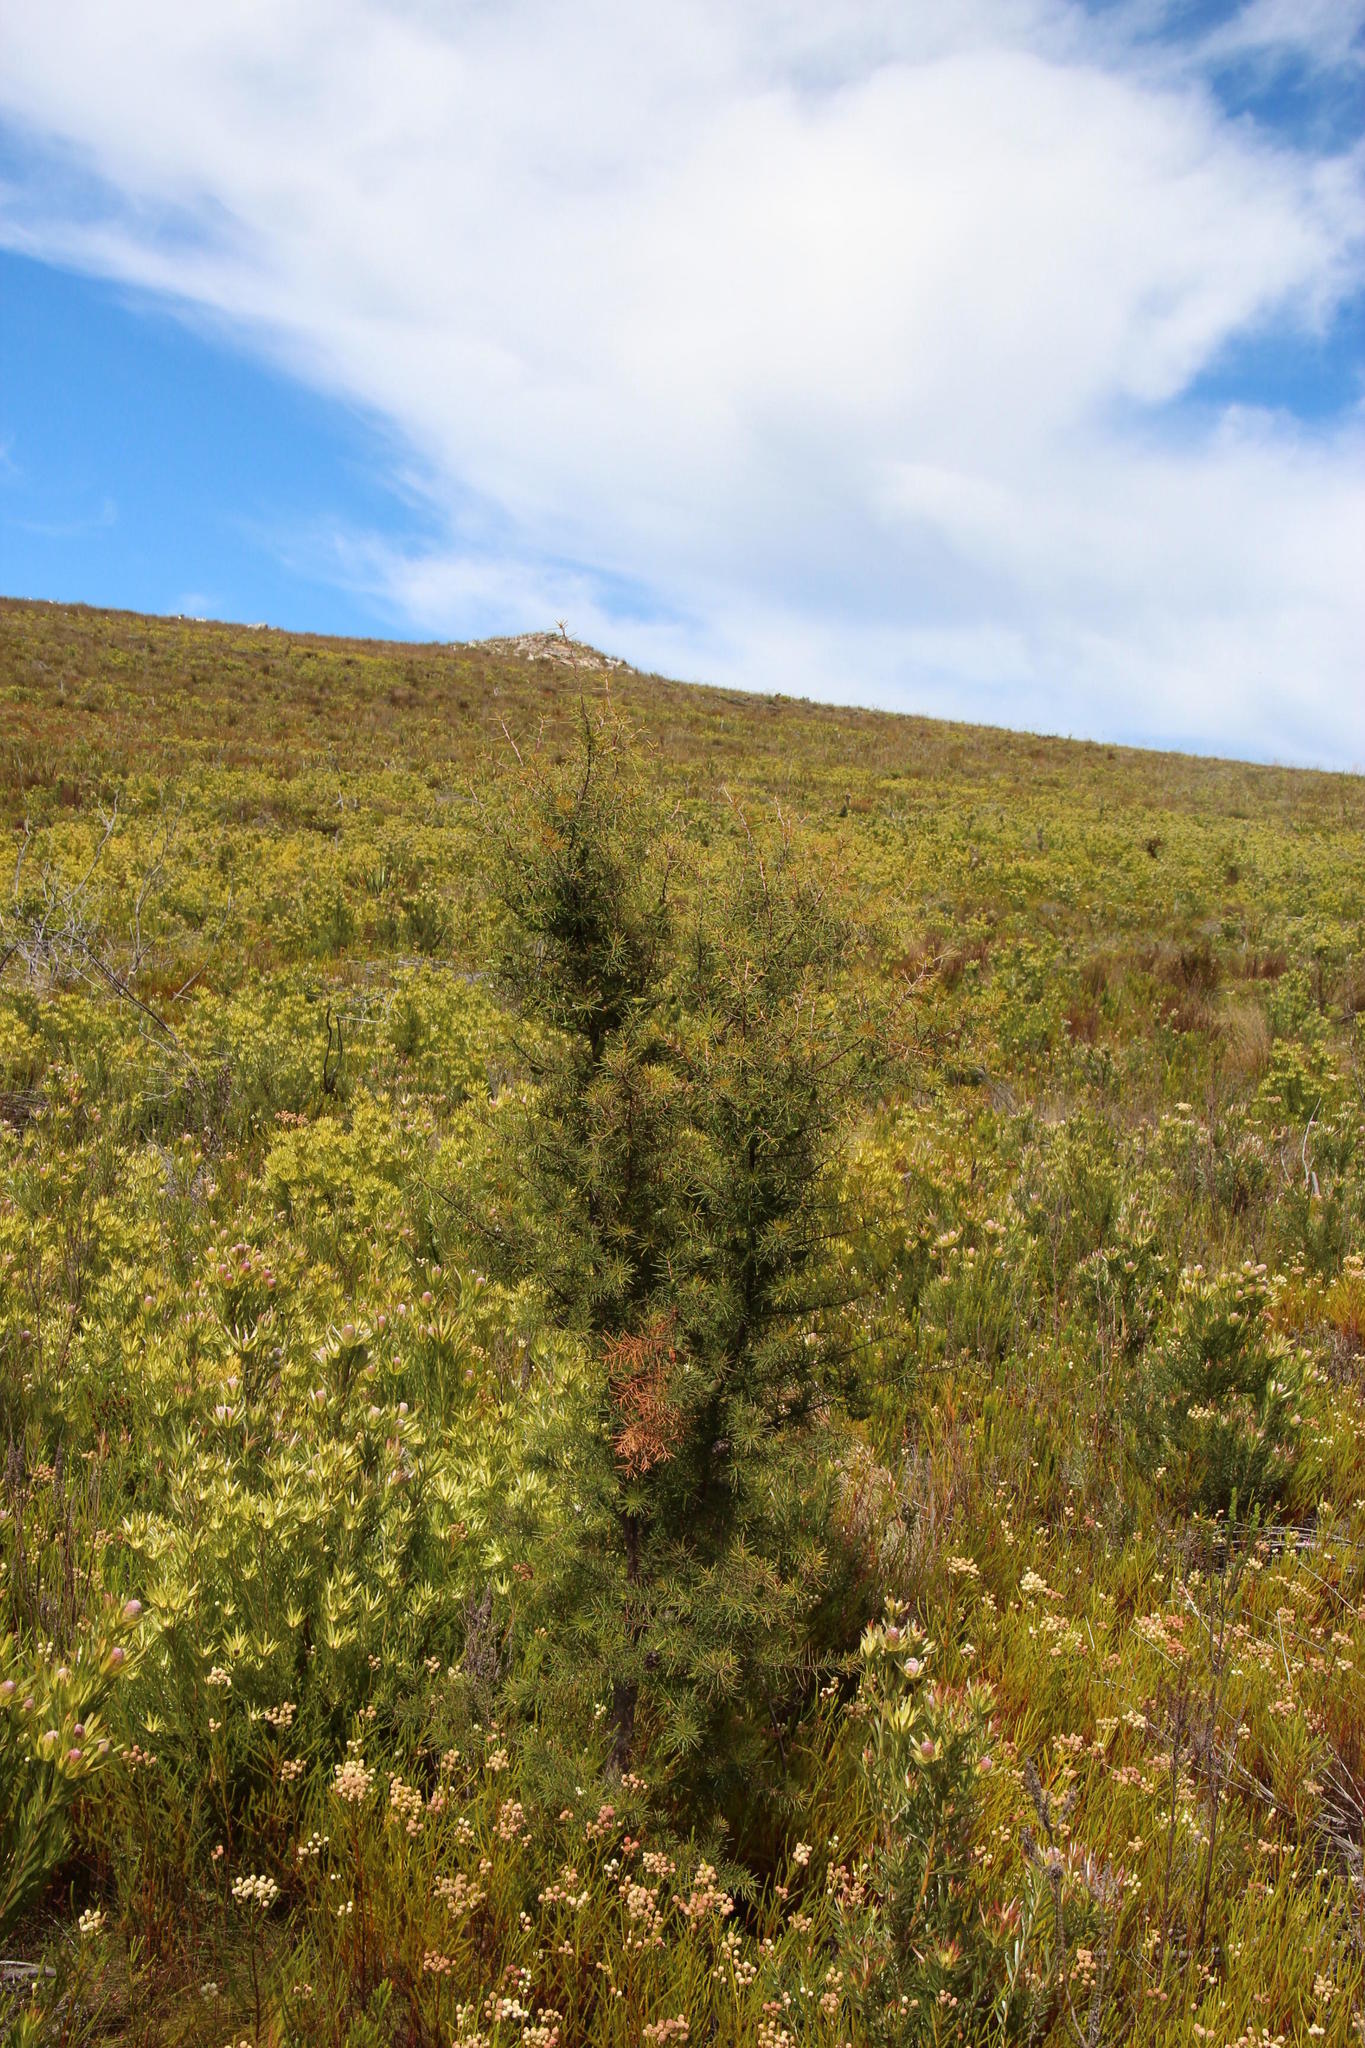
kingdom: Plantae
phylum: Tracheophyta
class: Magnoliopsida
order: Proteales
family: Proteaceae
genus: Hakea
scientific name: Hakea sericea
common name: Needle bush
